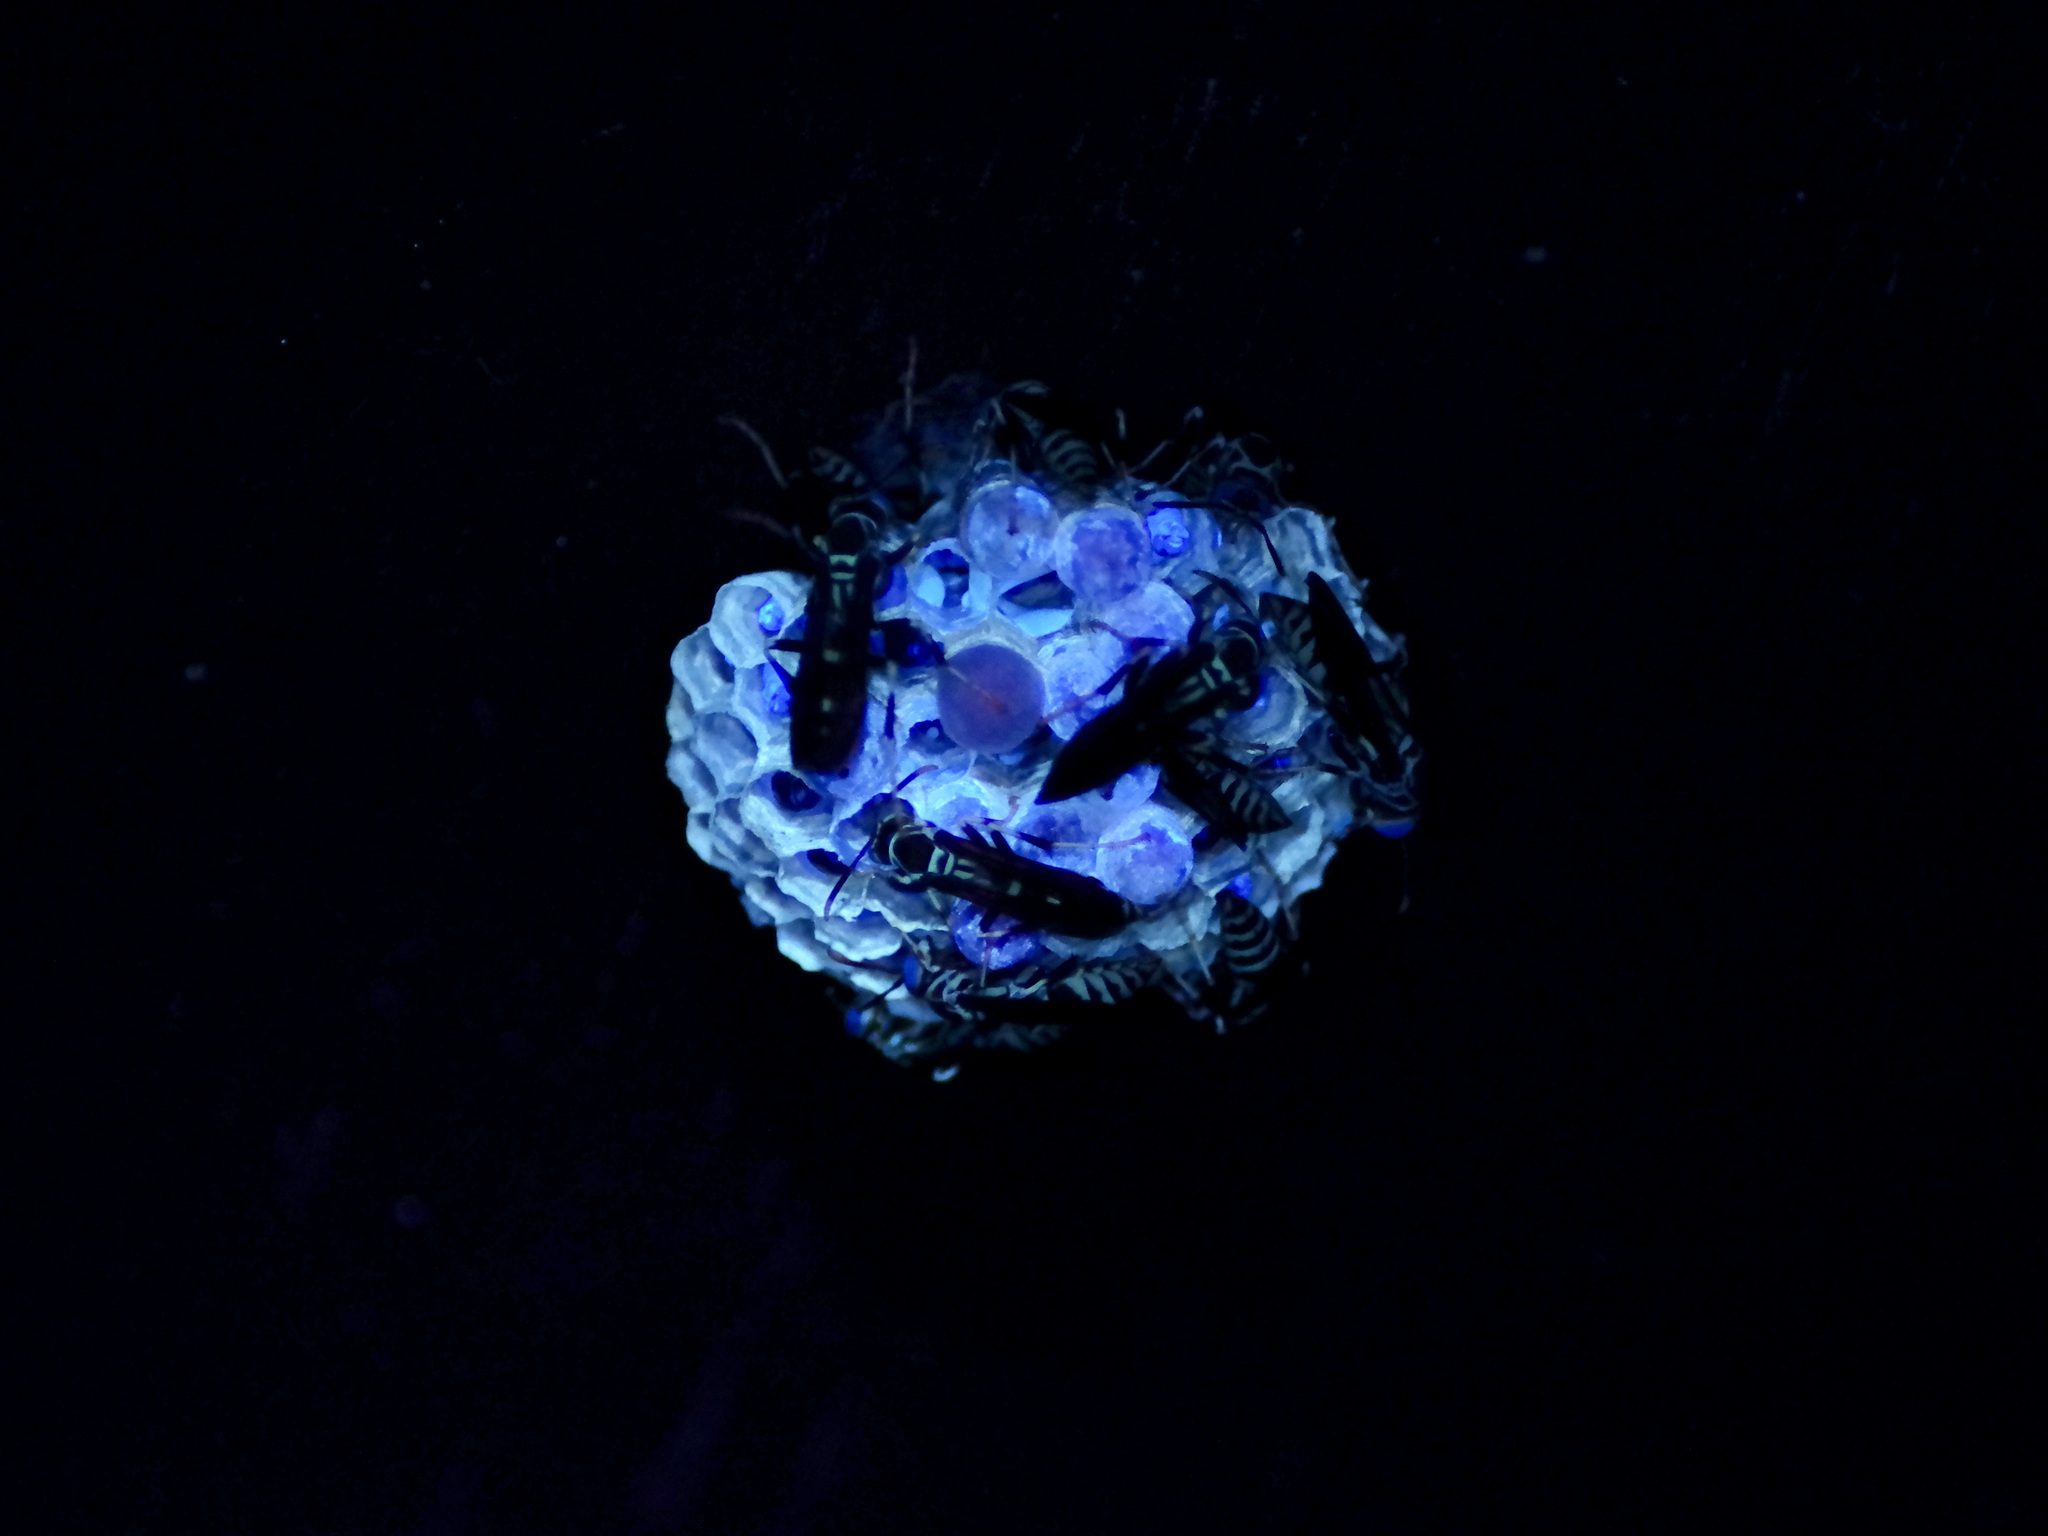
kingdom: Animalia
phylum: Arthropoda
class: Insecta
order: Hymenoptera
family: Eumenidae
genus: Polistes
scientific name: Polistes exclamans
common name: Paper wasp
